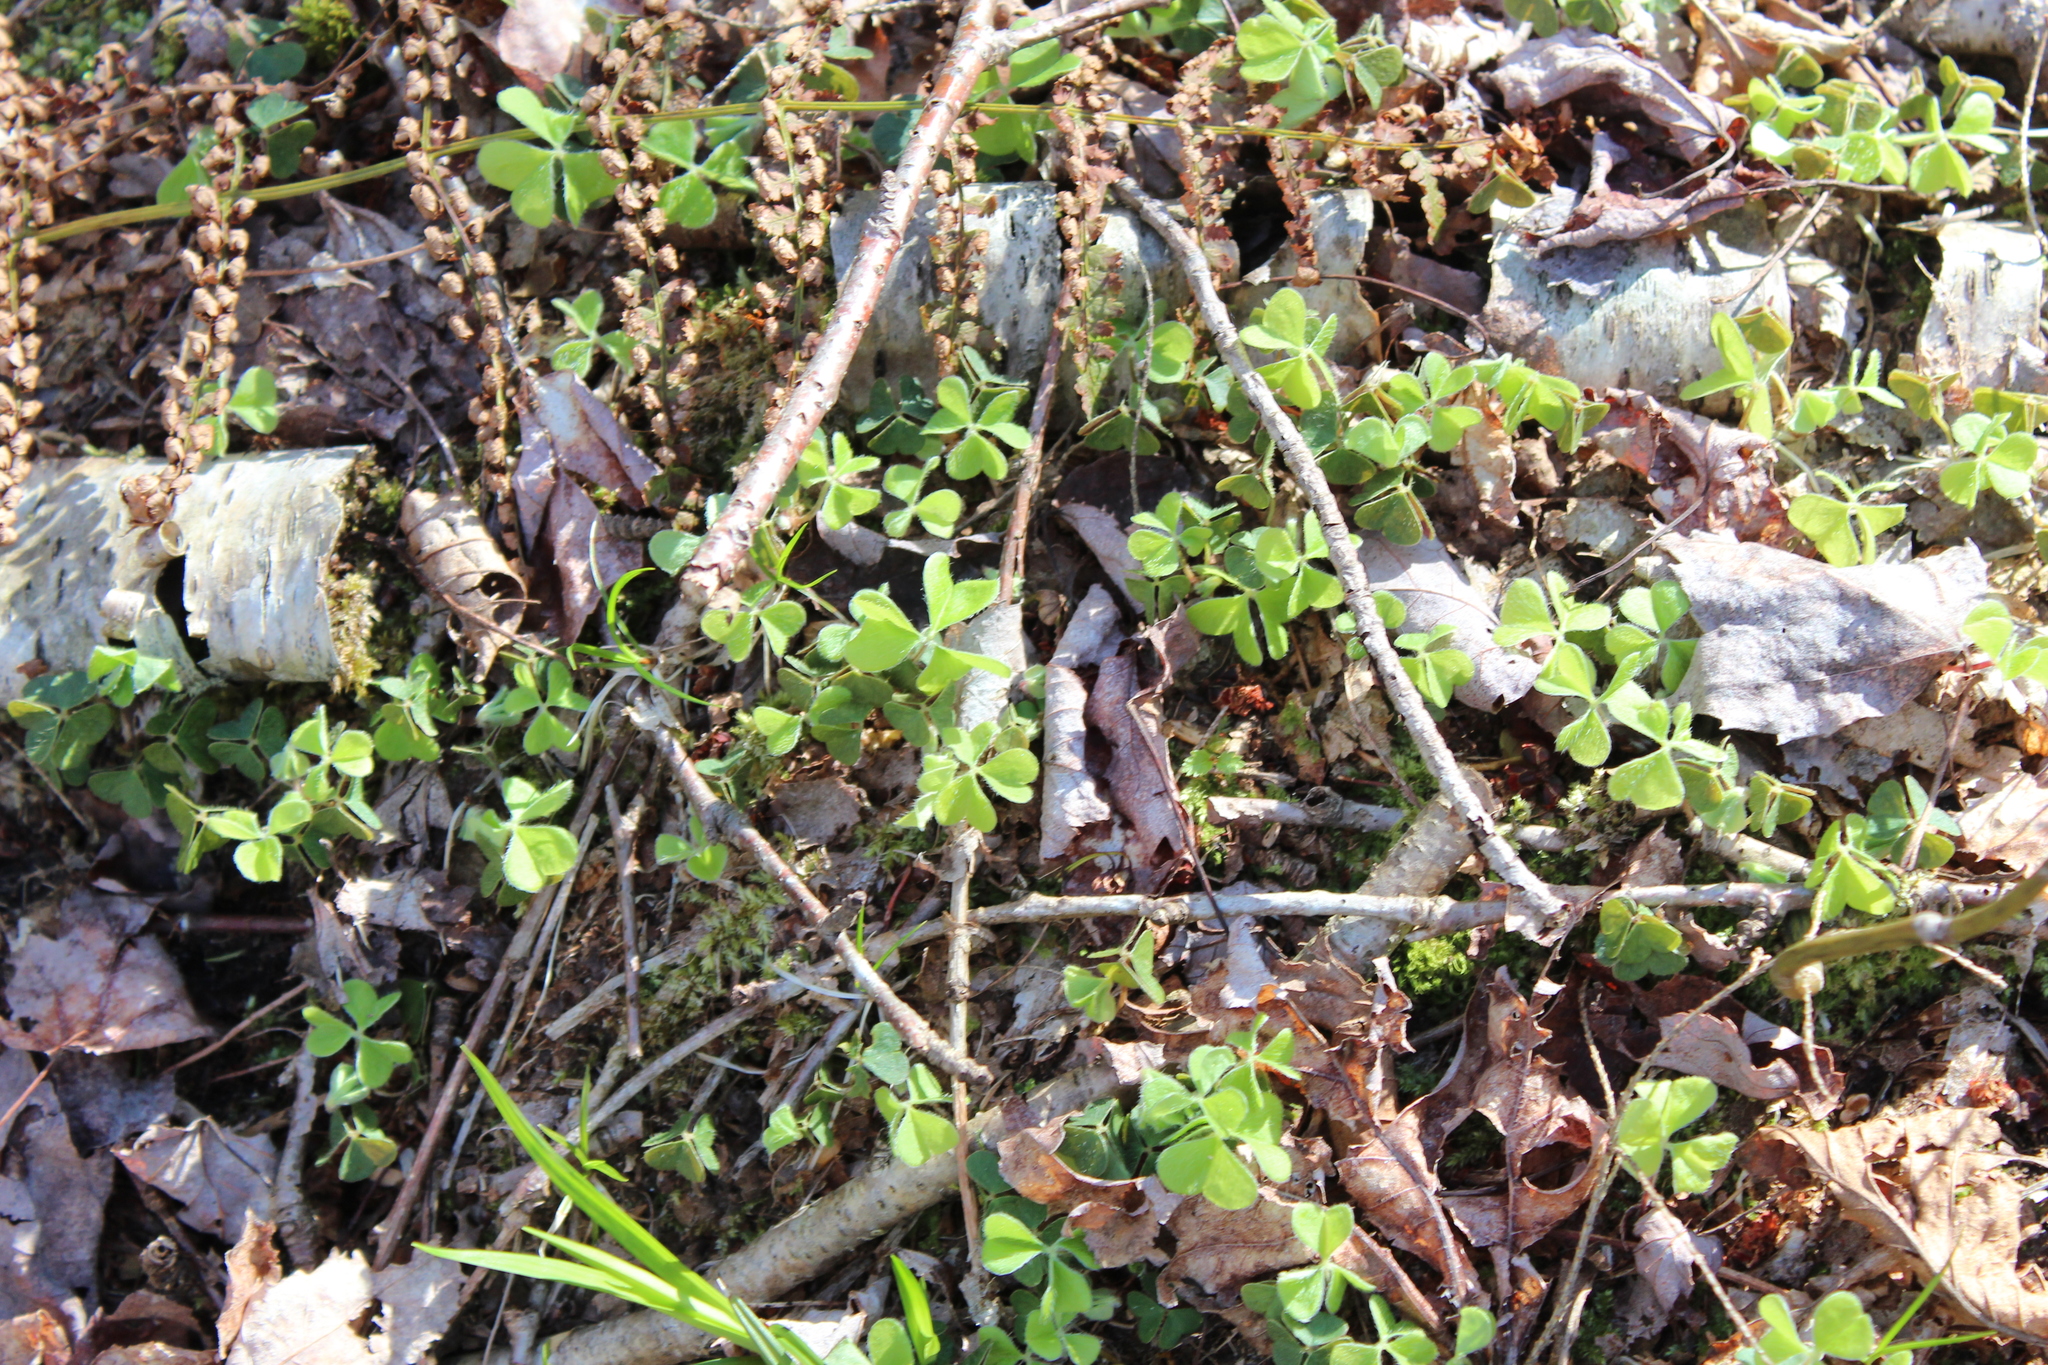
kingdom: Plantae
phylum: Tracheophyta
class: Magnoliopsida
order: Oxalidales
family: Oxalidaceae
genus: Oxalis
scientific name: Oxalis montana
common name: American wood-sorrel
